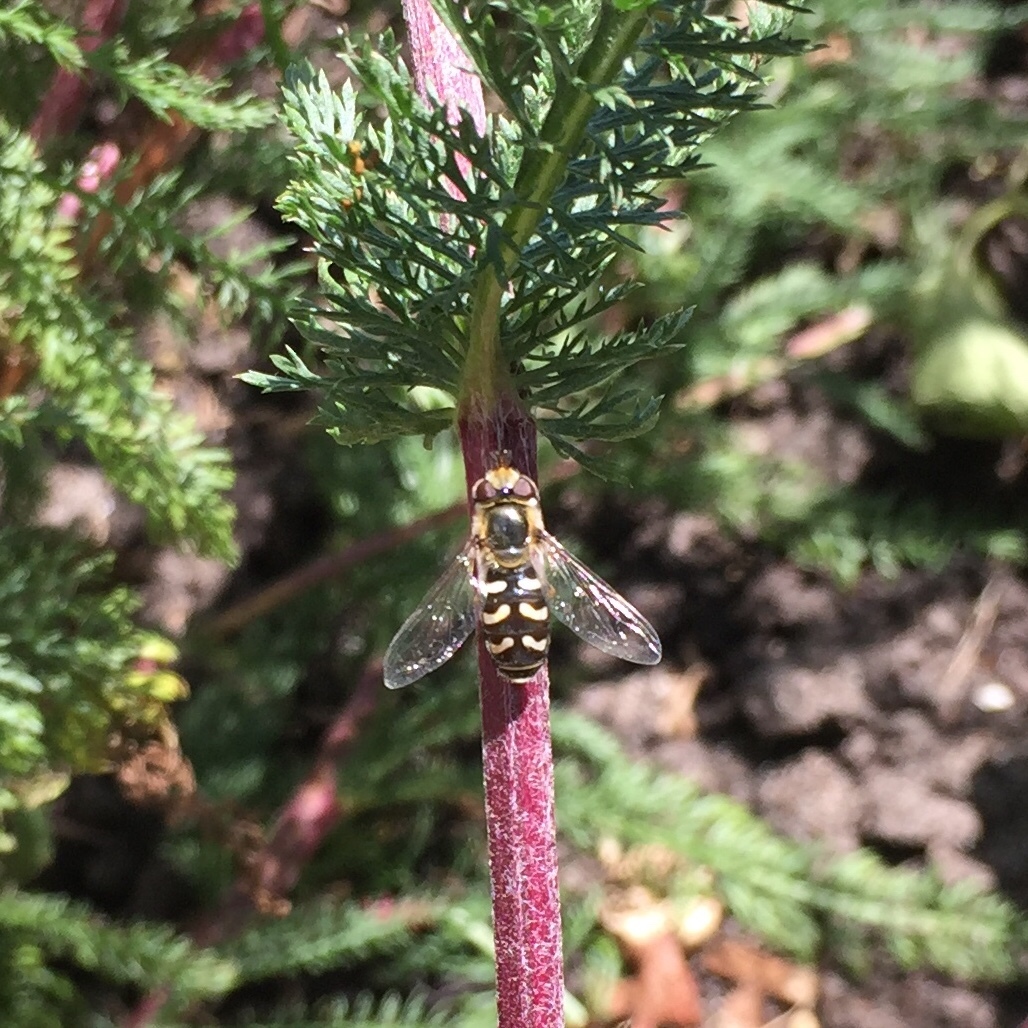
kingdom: Animalia
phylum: Arthropoda
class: Insecta
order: Diptera
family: Syrphidae
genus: Scaeva
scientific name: Scaeva pyrastri
